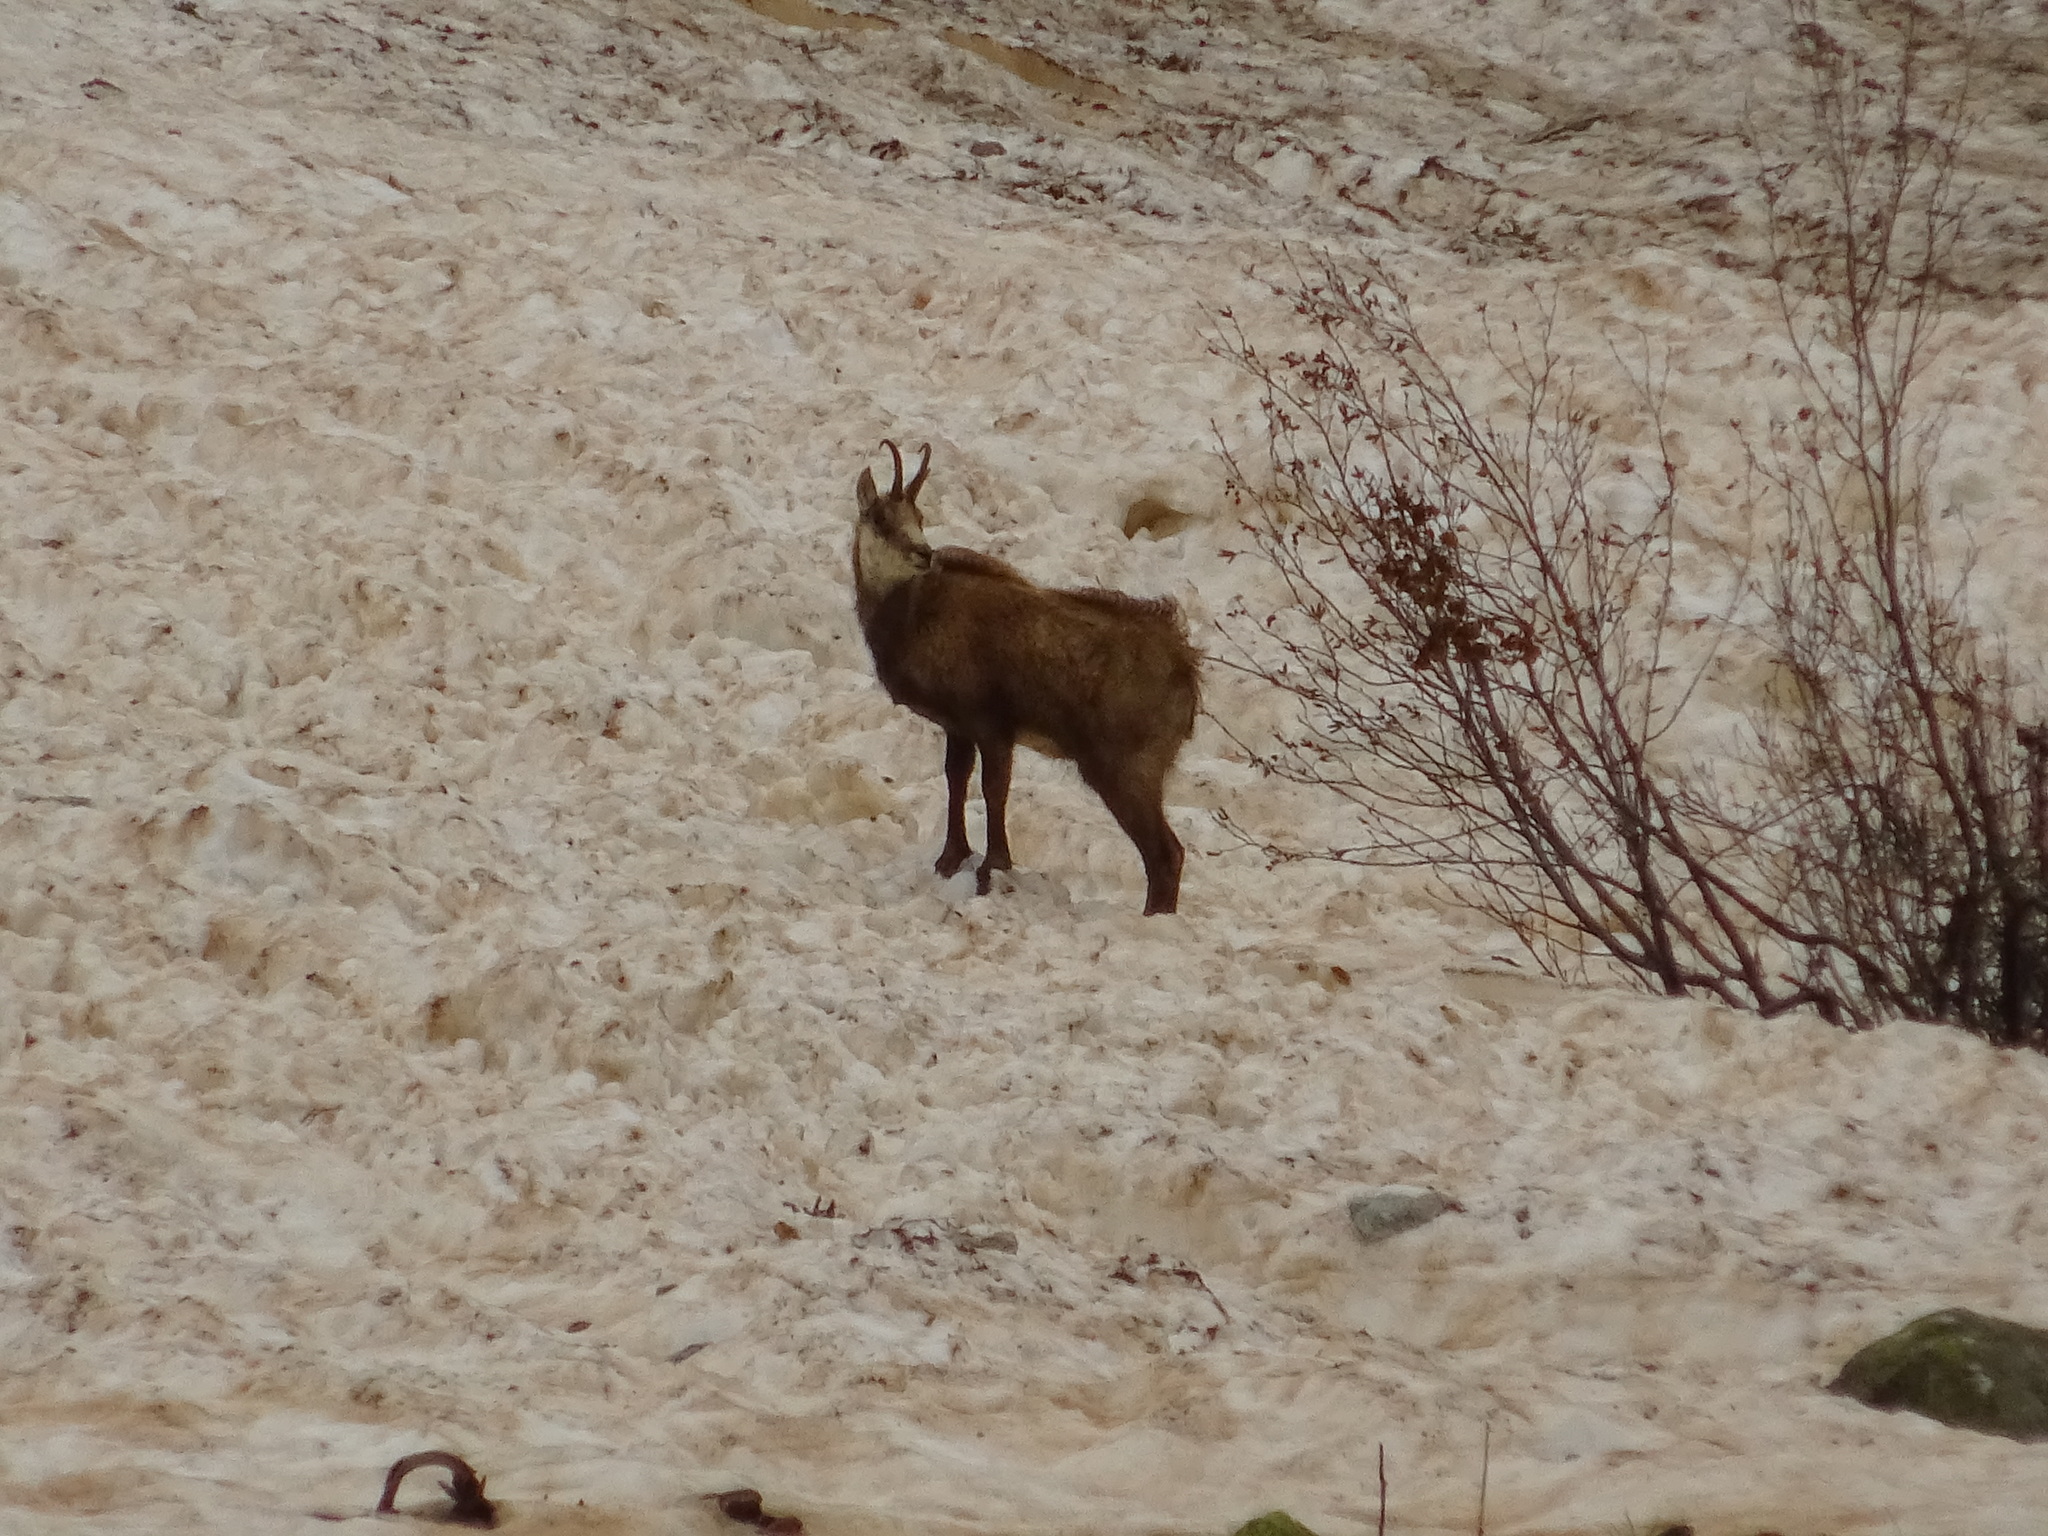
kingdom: Animalia
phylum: Chordata
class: Mammalia
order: Artiodactyla
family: Bovidae
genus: Rupicapra
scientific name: Rupicapra rupicapra
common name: Chamois
